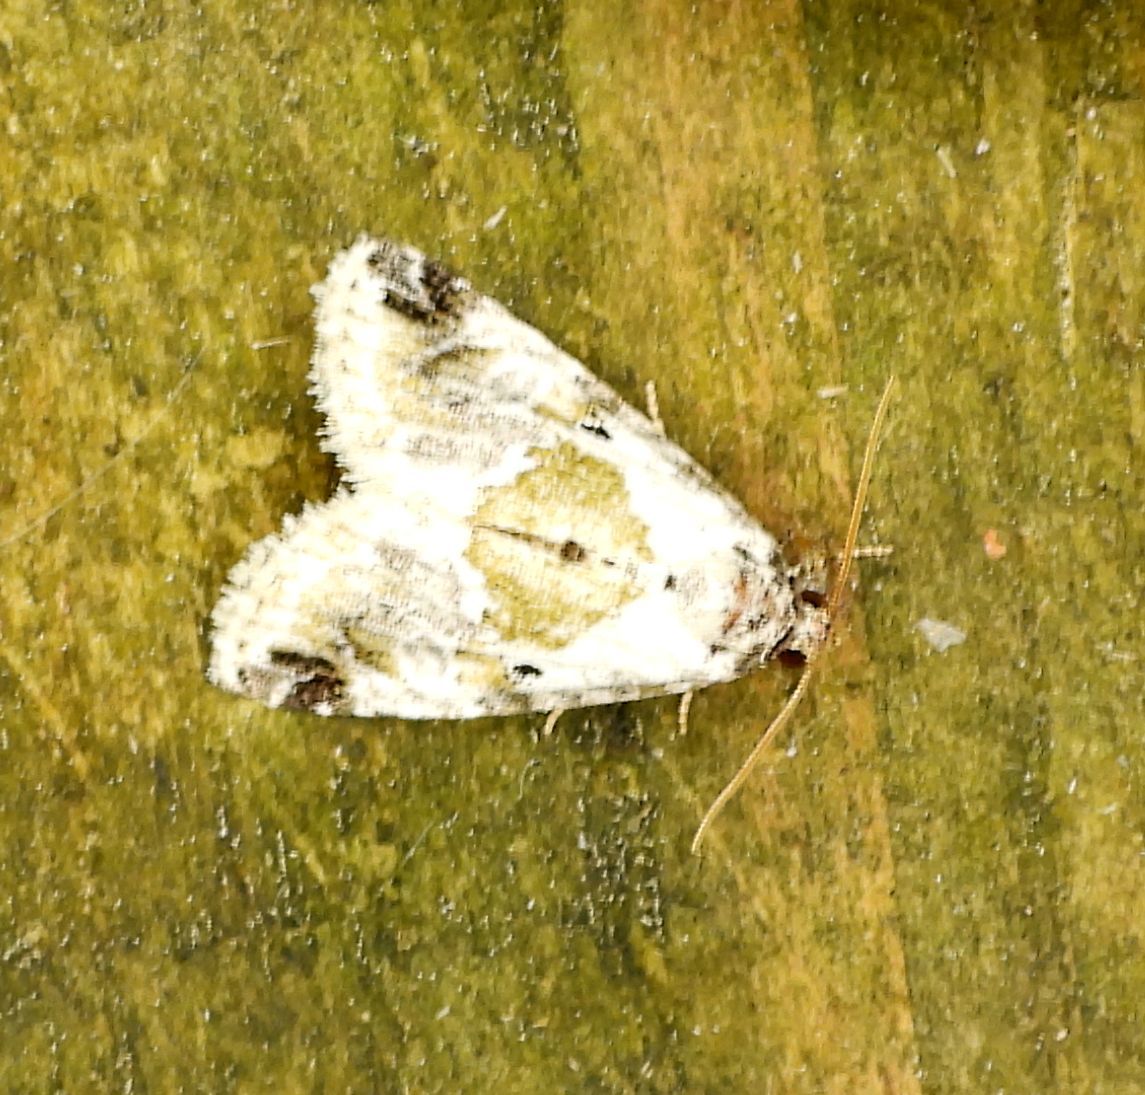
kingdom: Animalia
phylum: Arthropoda
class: Insecta
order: Lepidoptera
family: Noctuidae
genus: Maliattha
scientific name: Maliattha synochitis
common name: Black-dotted glyph
